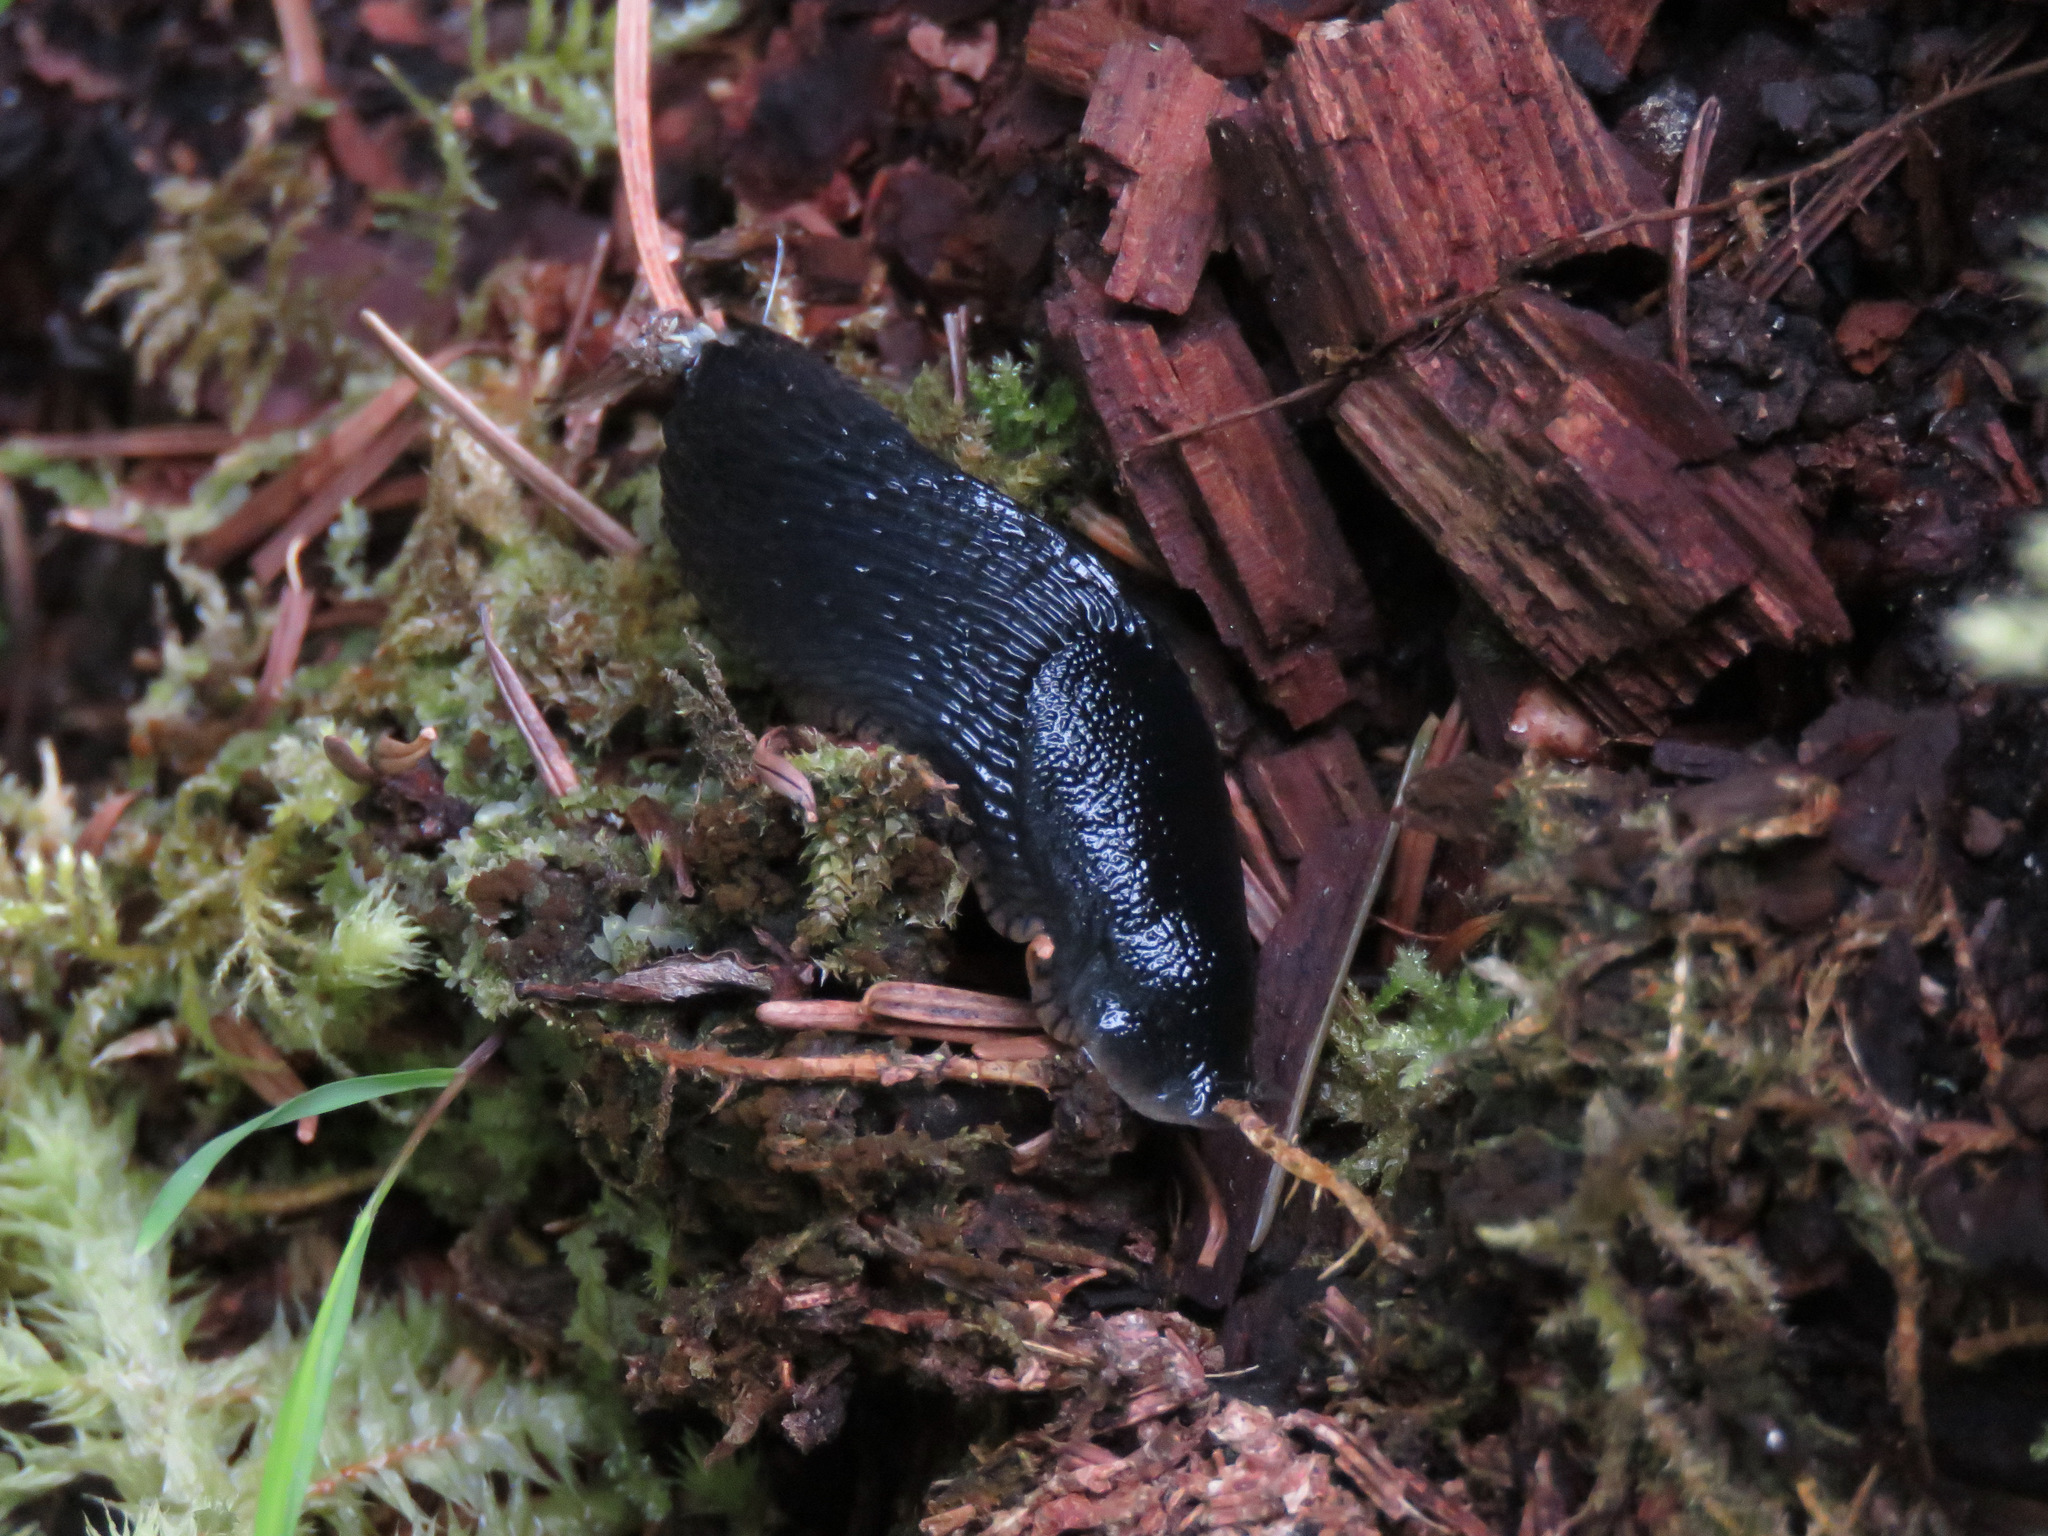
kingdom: Animalia
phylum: Mollusca
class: Gastropoda
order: Stylommatophora
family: Arionidae
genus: Arion
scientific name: Arion
